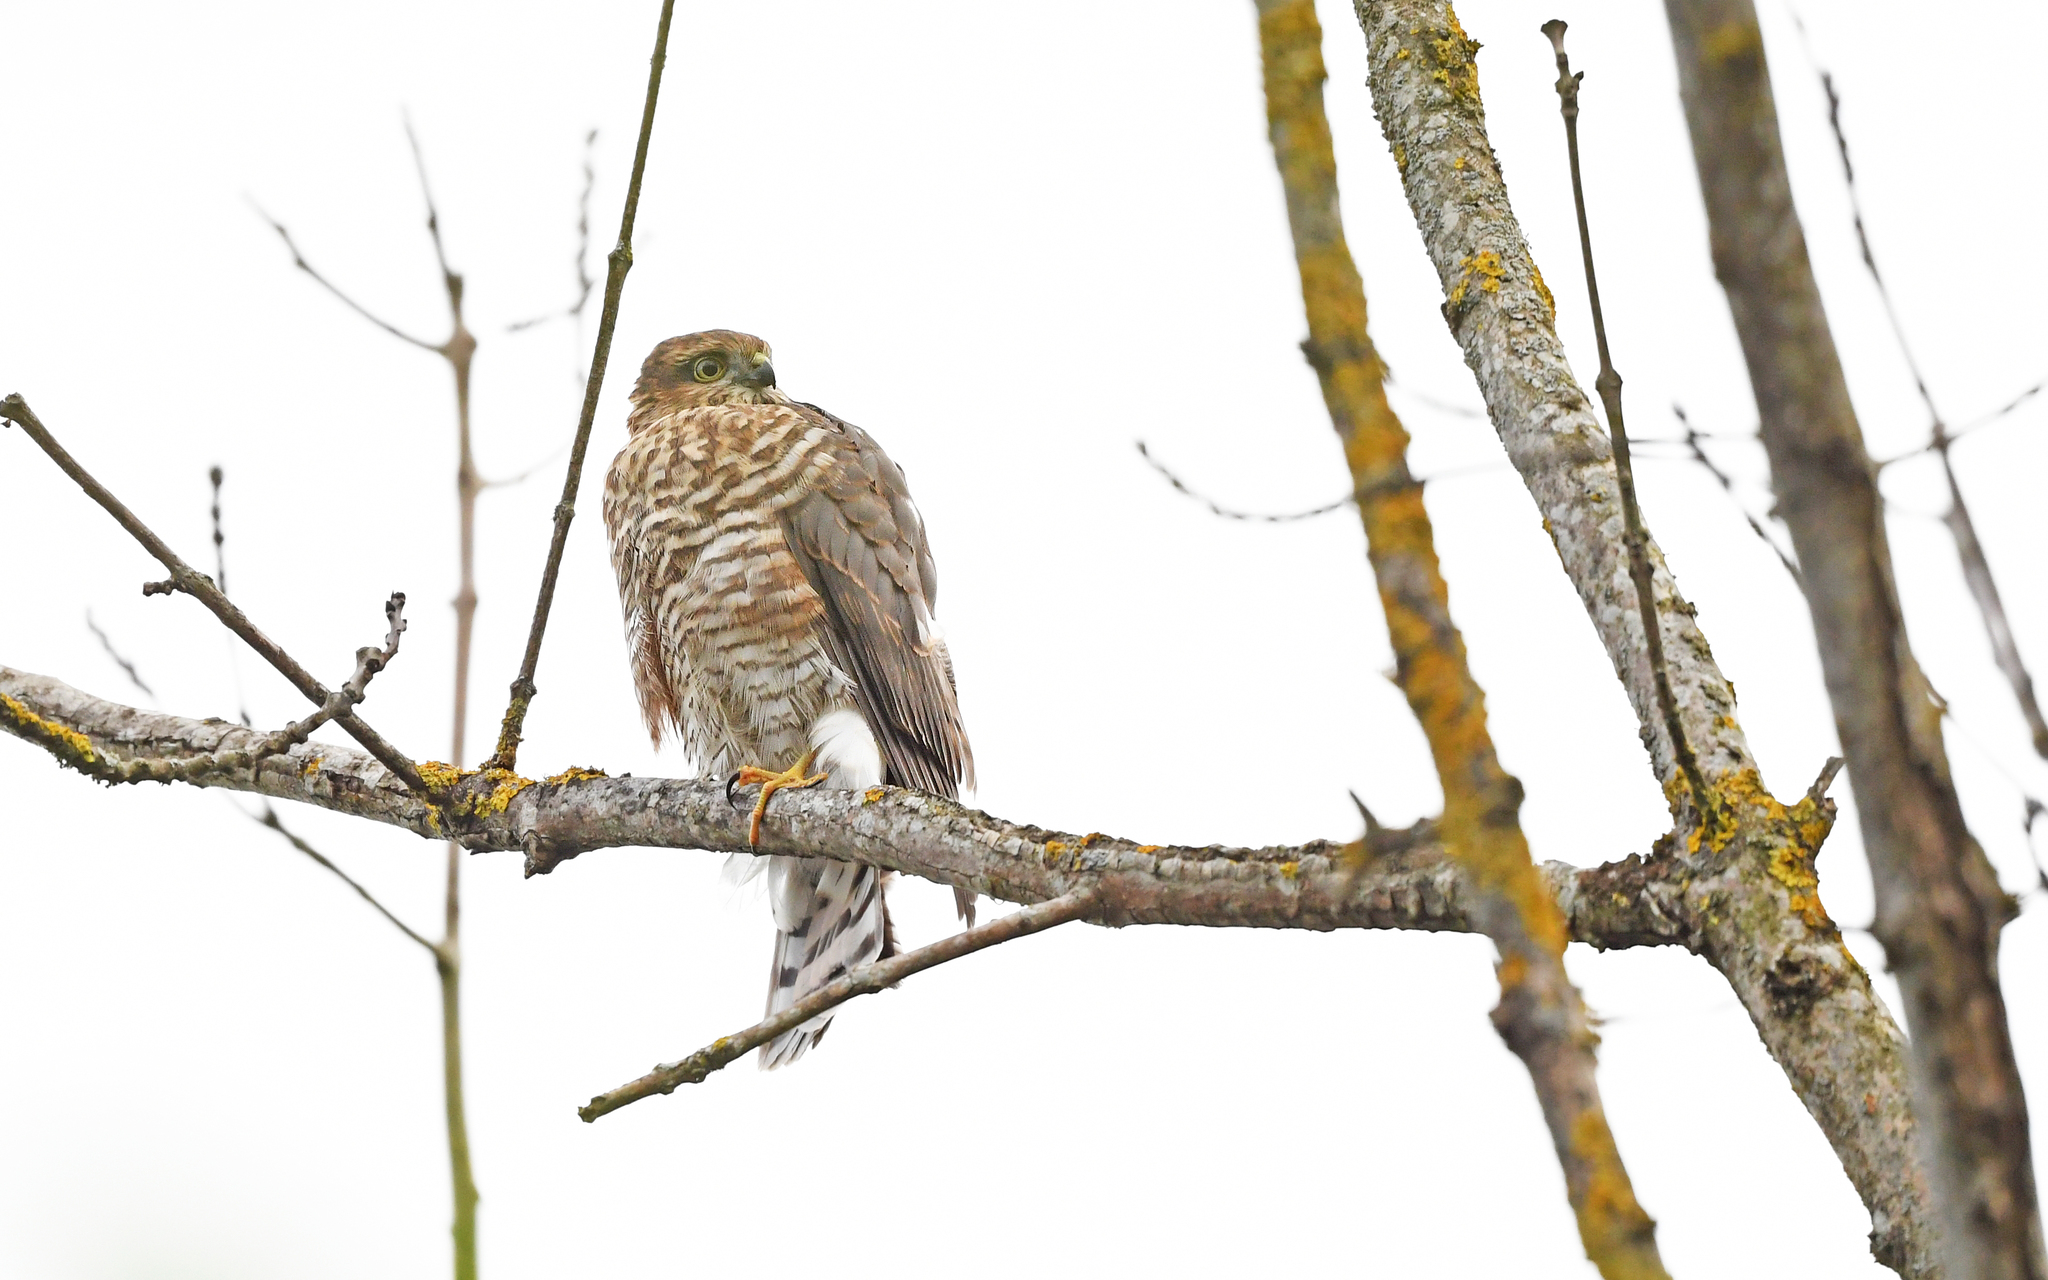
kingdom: Animalia
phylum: Chordata
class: Aves
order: Accipitriformes
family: Accipitridae
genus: Accipiter
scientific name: Accipiter nisus
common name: Eurasian sparrowhawk
